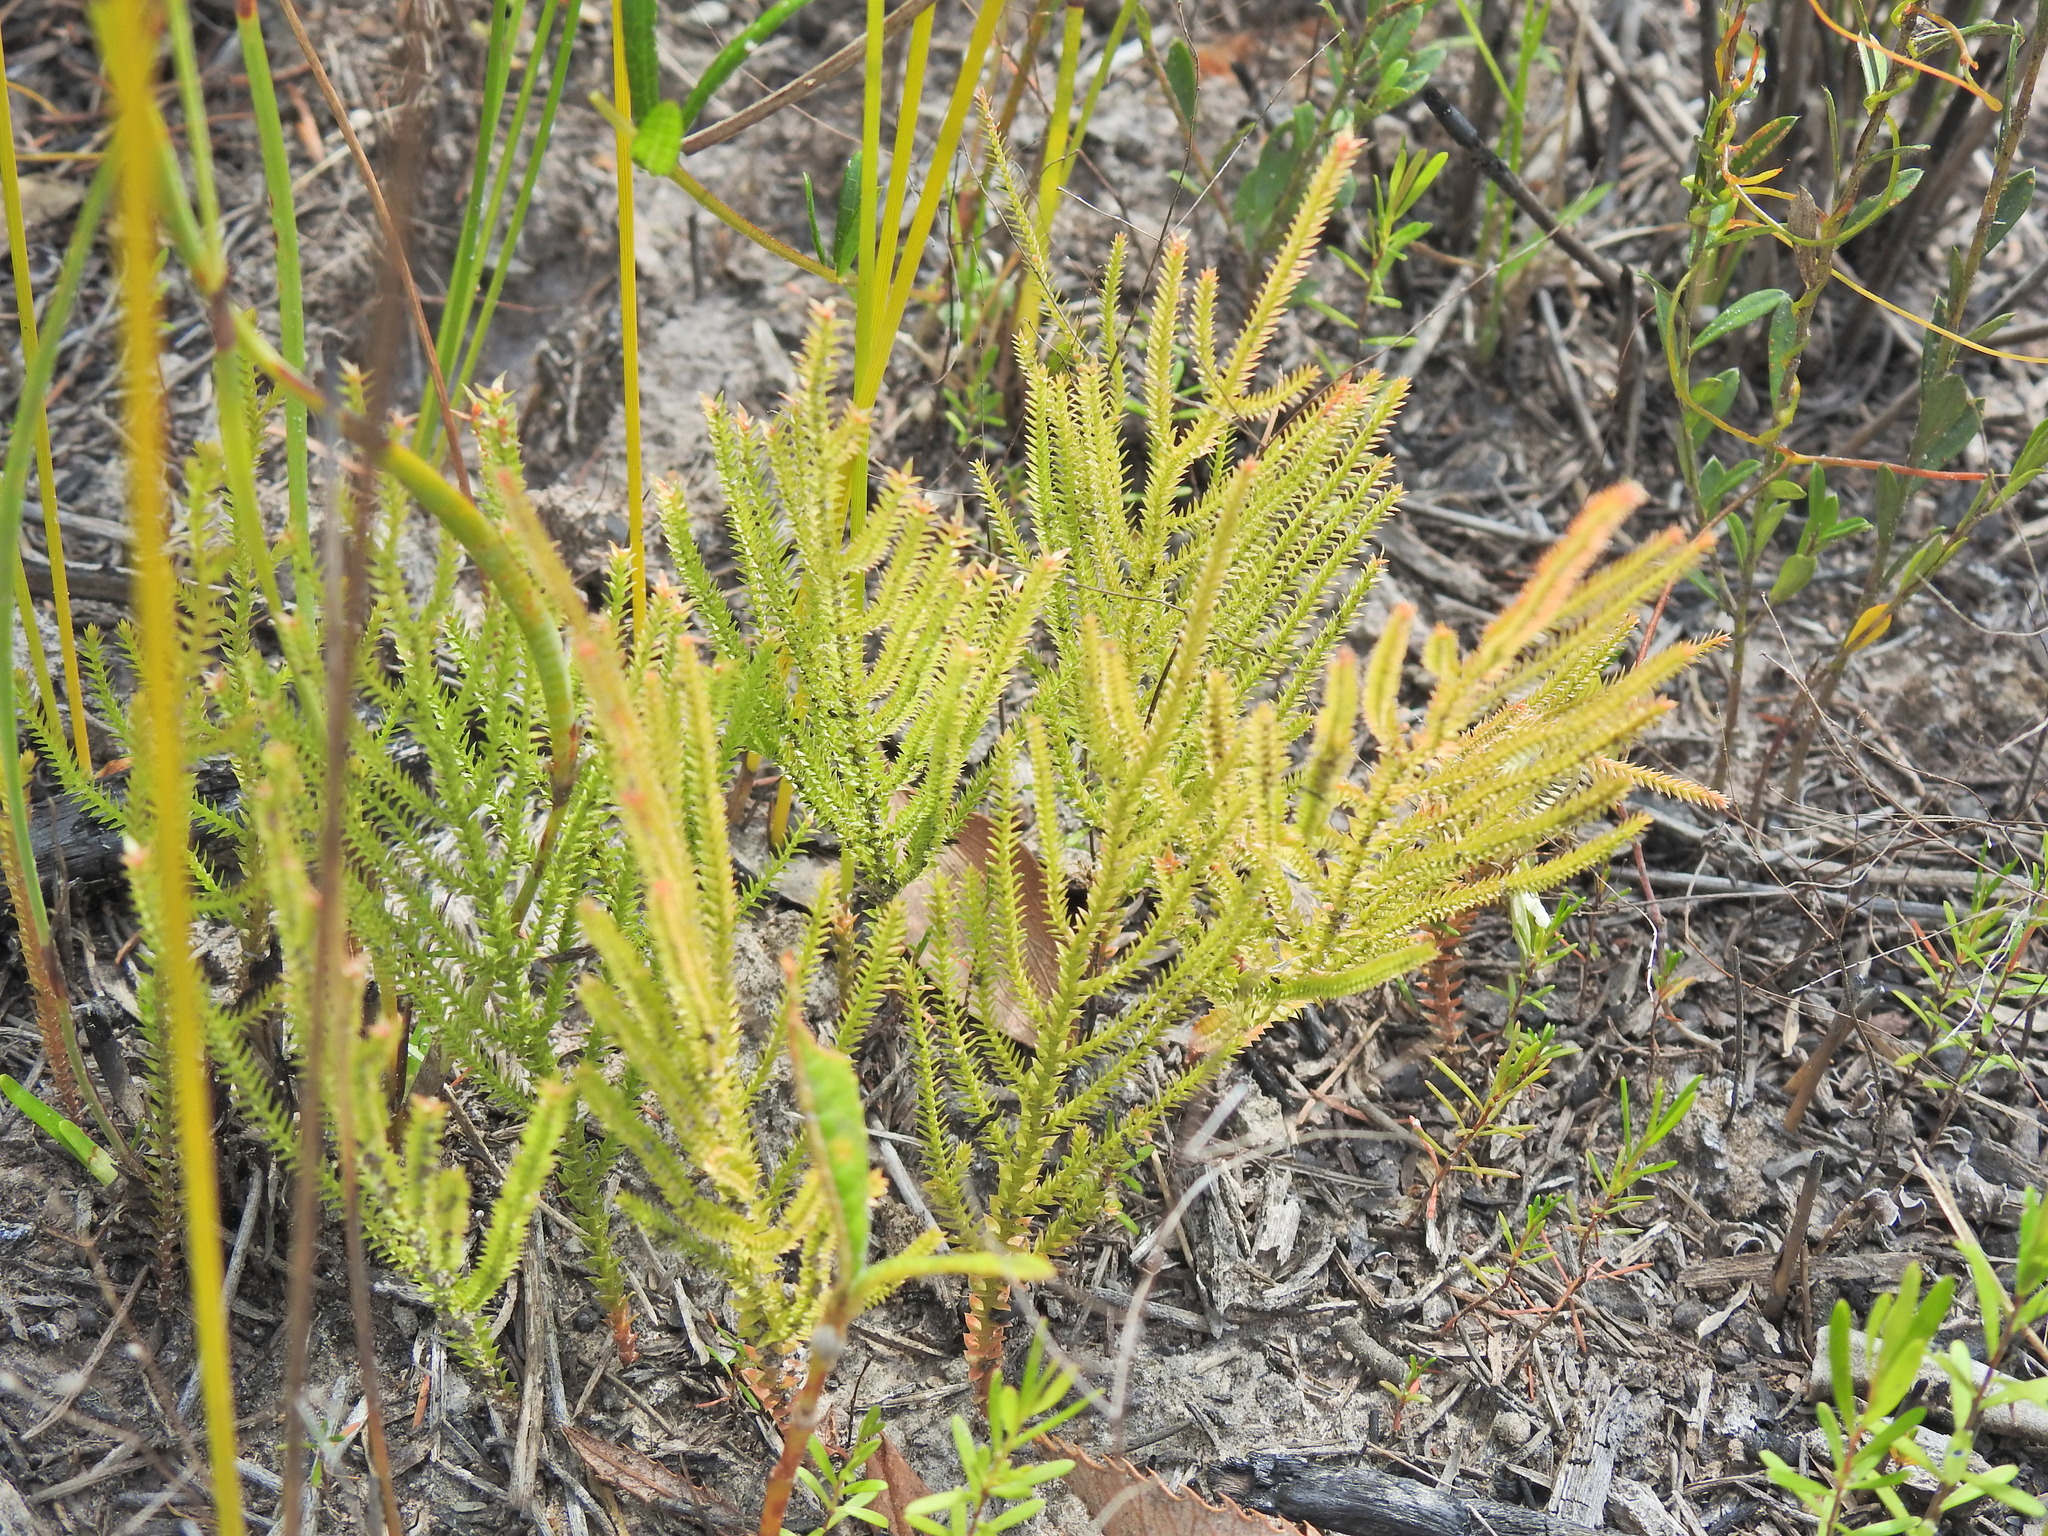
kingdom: Plantae
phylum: Tracheophyta
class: Lycopodiopsida
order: Selaginellales
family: Selaginellaceae
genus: Selaginella
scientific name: Selaginella uliginosa
